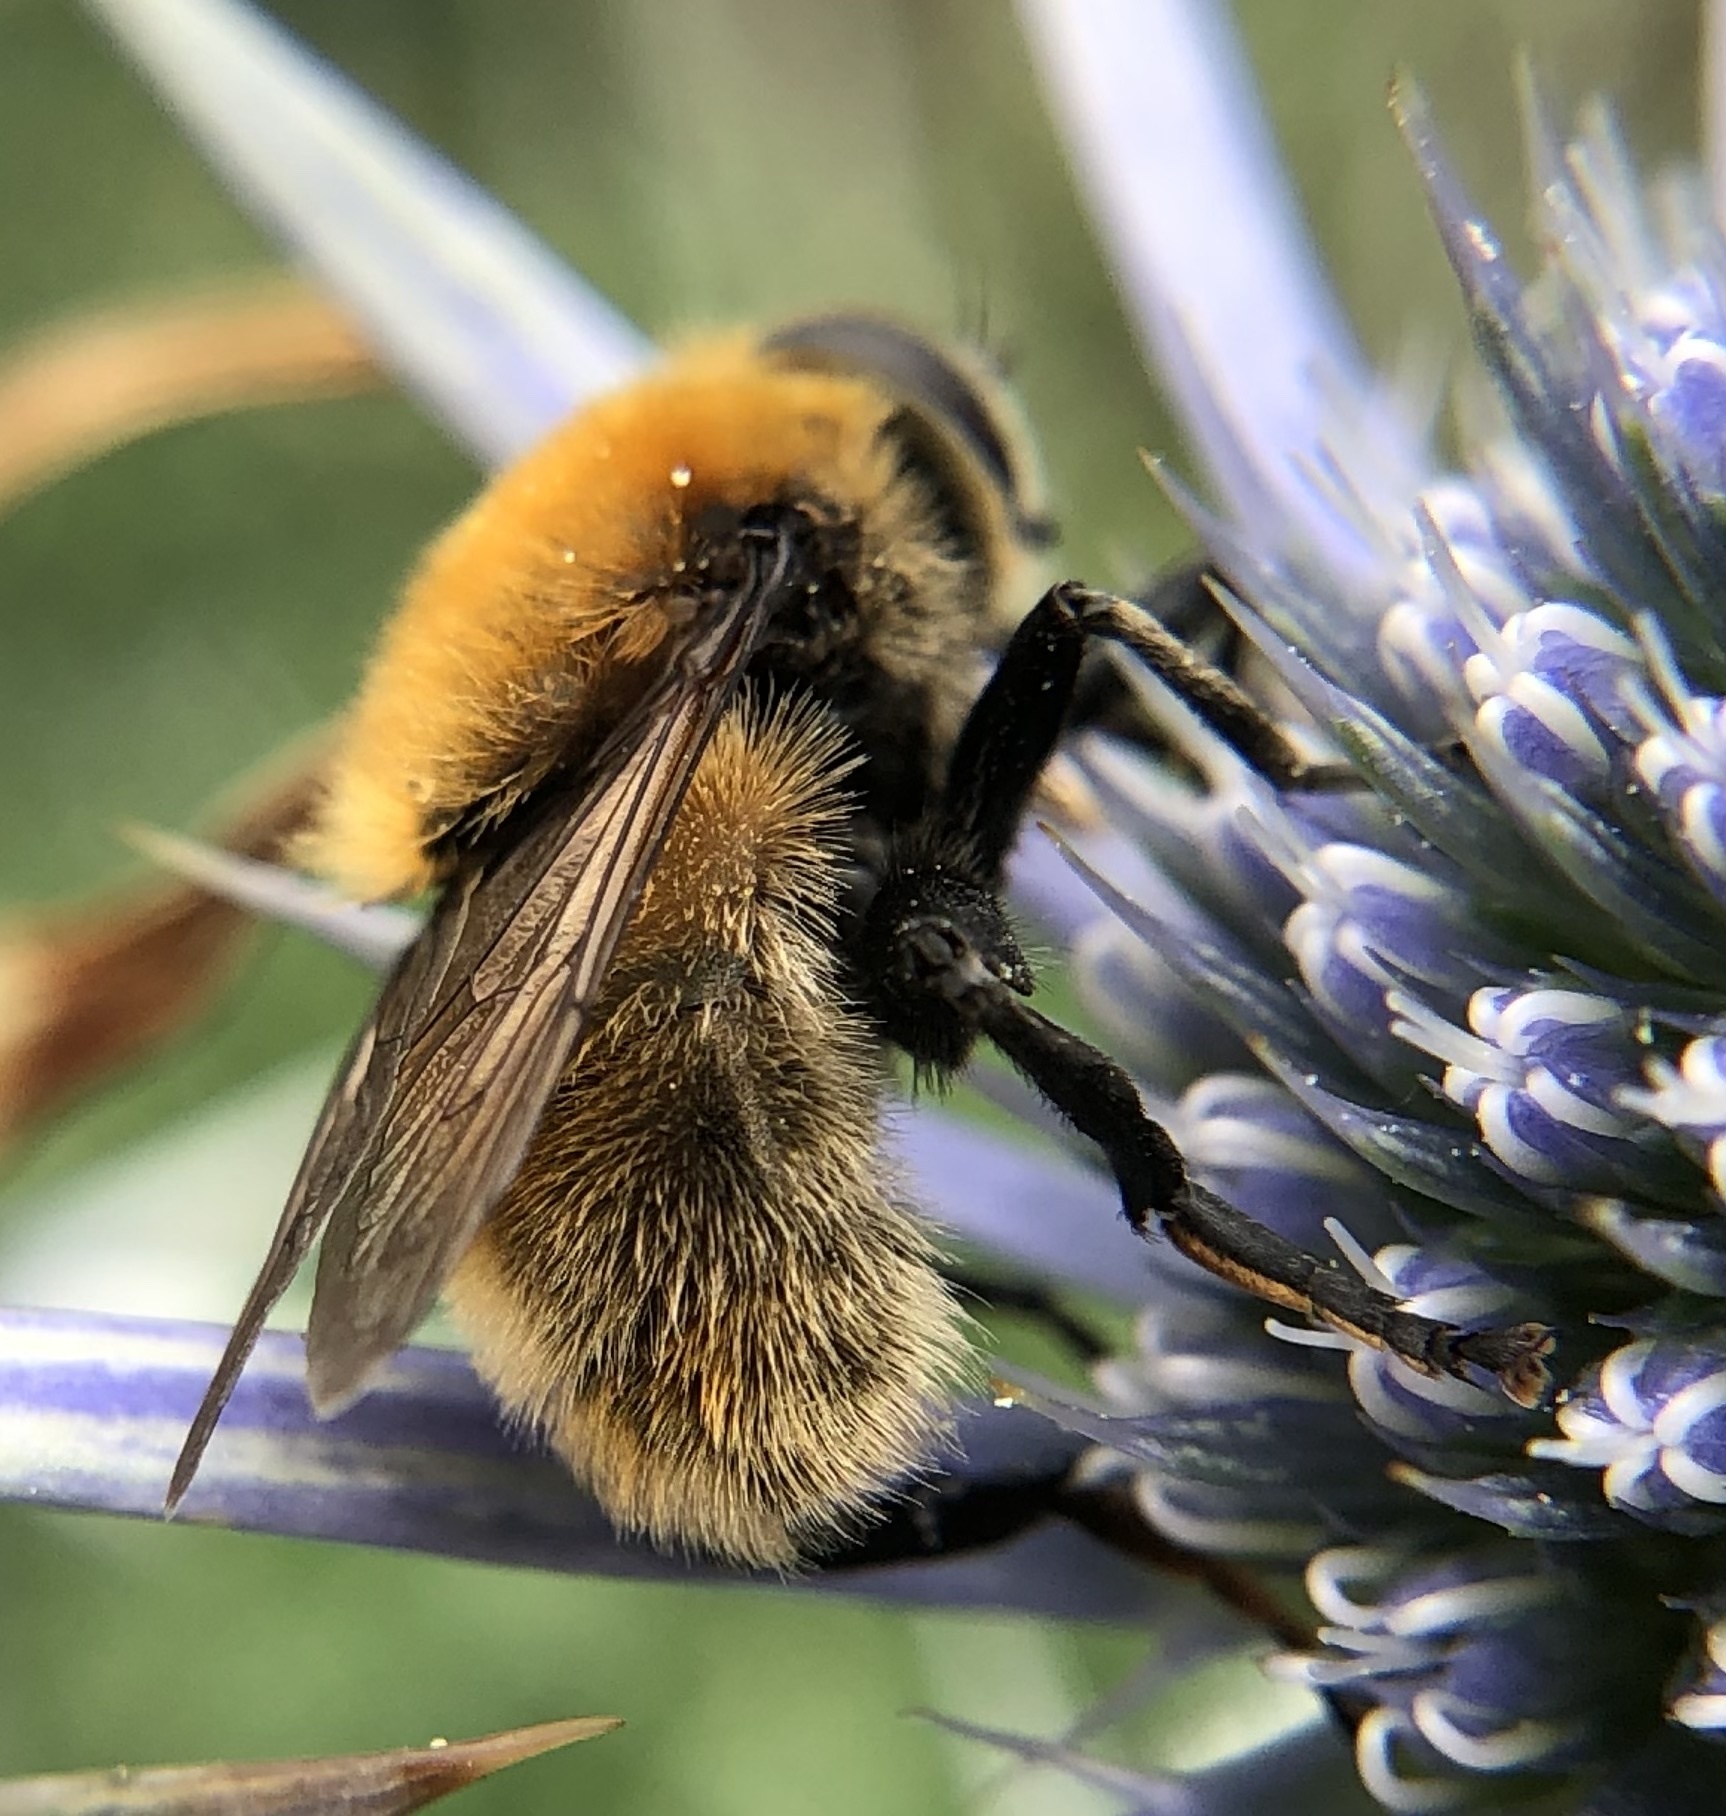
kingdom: Animalia
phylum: Arthropoda
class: Insecta
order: Diptera
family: Syrphidae
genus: Merodon
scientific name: Merodon equestris
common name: Greater bulb-fly
